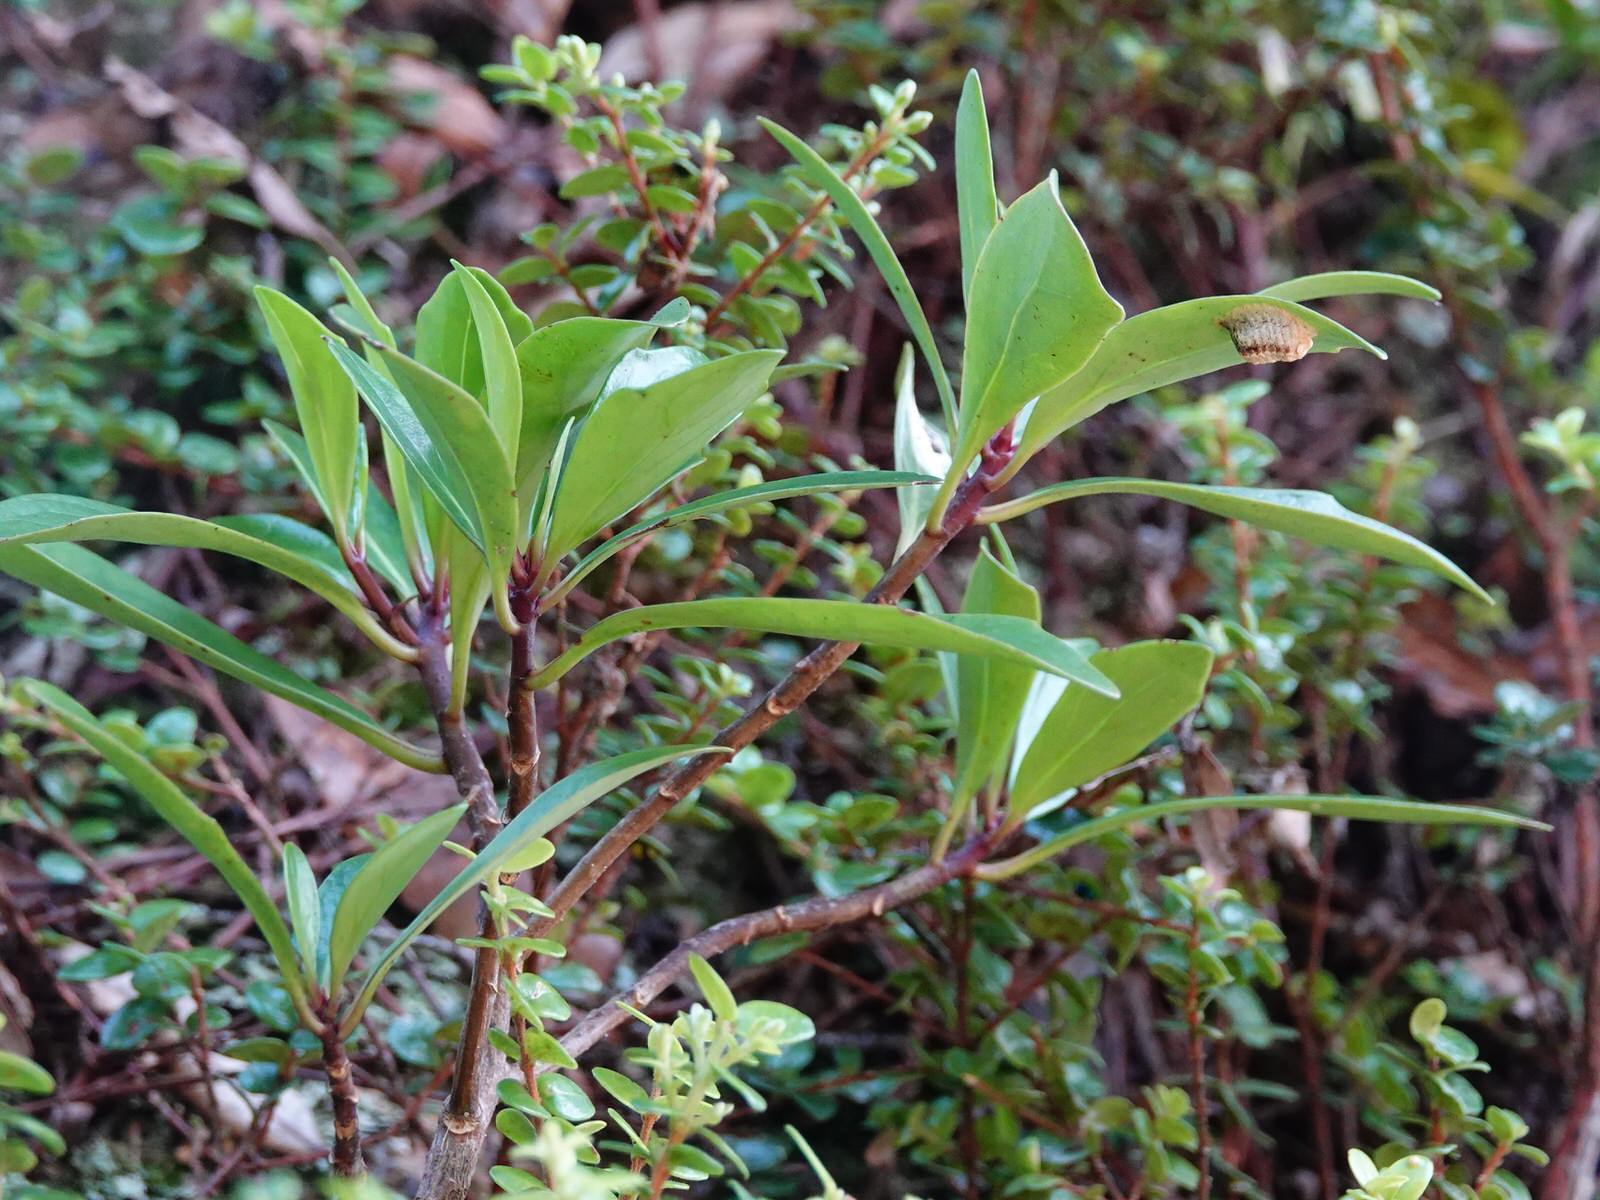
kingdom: Animalia
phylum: Arthropoda
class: Insecta
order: Mantodea
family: Mantidae
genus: Orthodera
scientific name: Orthodera novaezealandiae
